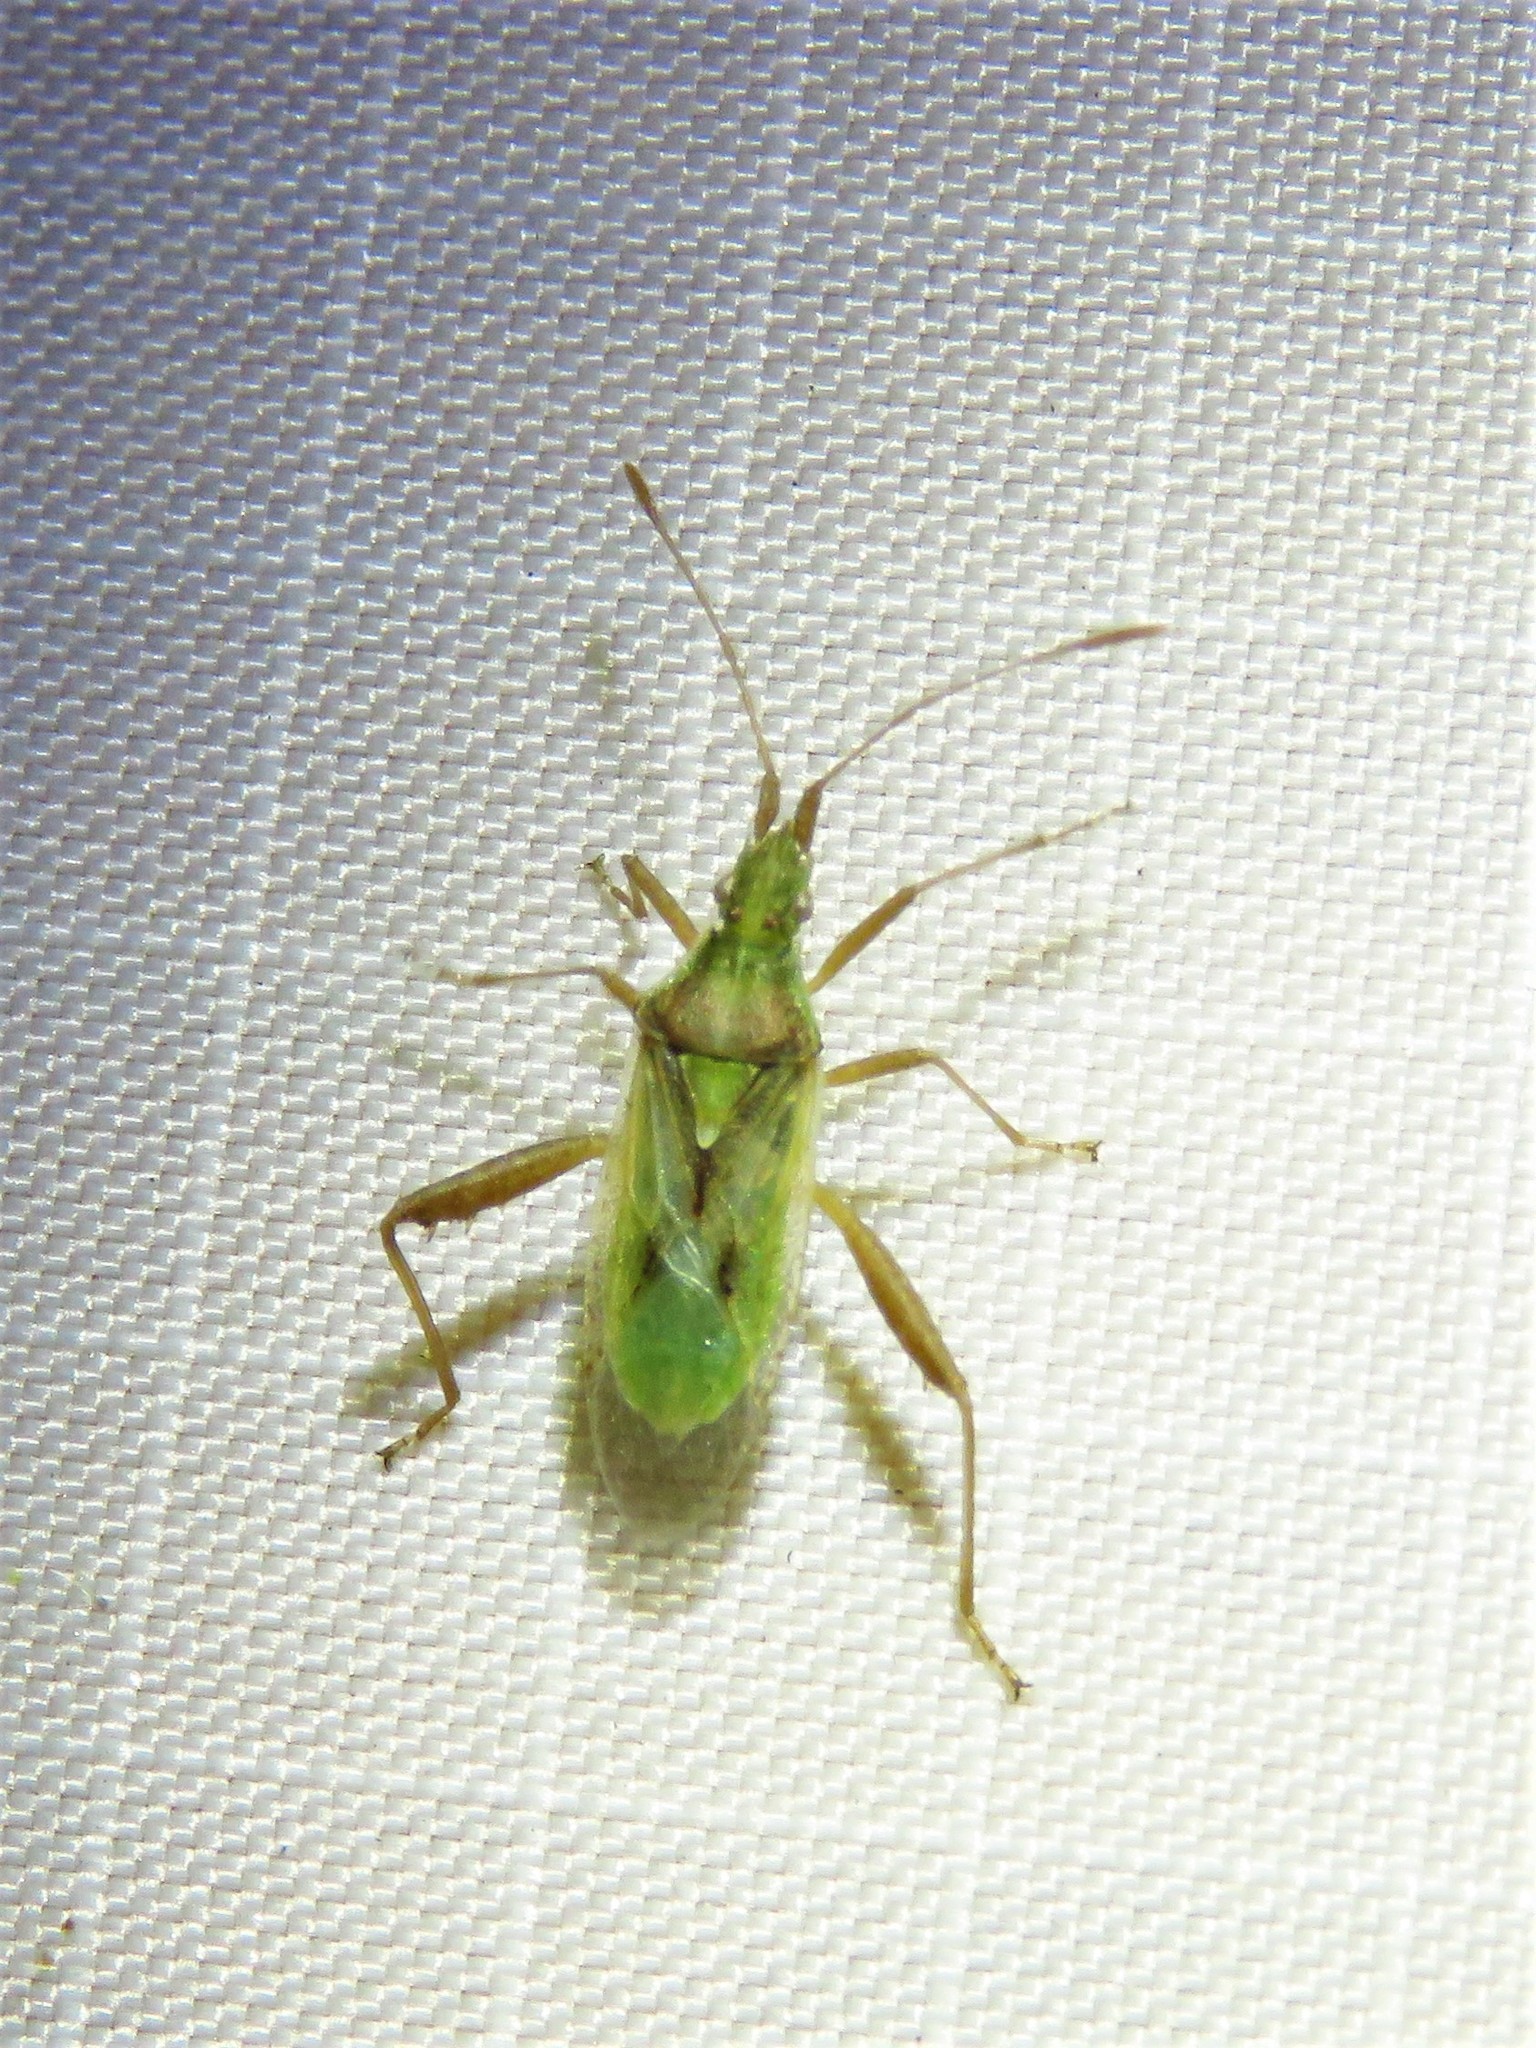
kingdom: Animalia
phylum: Arthropoda
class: Insecta
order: Hemiptera
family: Rhopalidae
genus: Harmostes
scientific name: Harmostes reflexulus
